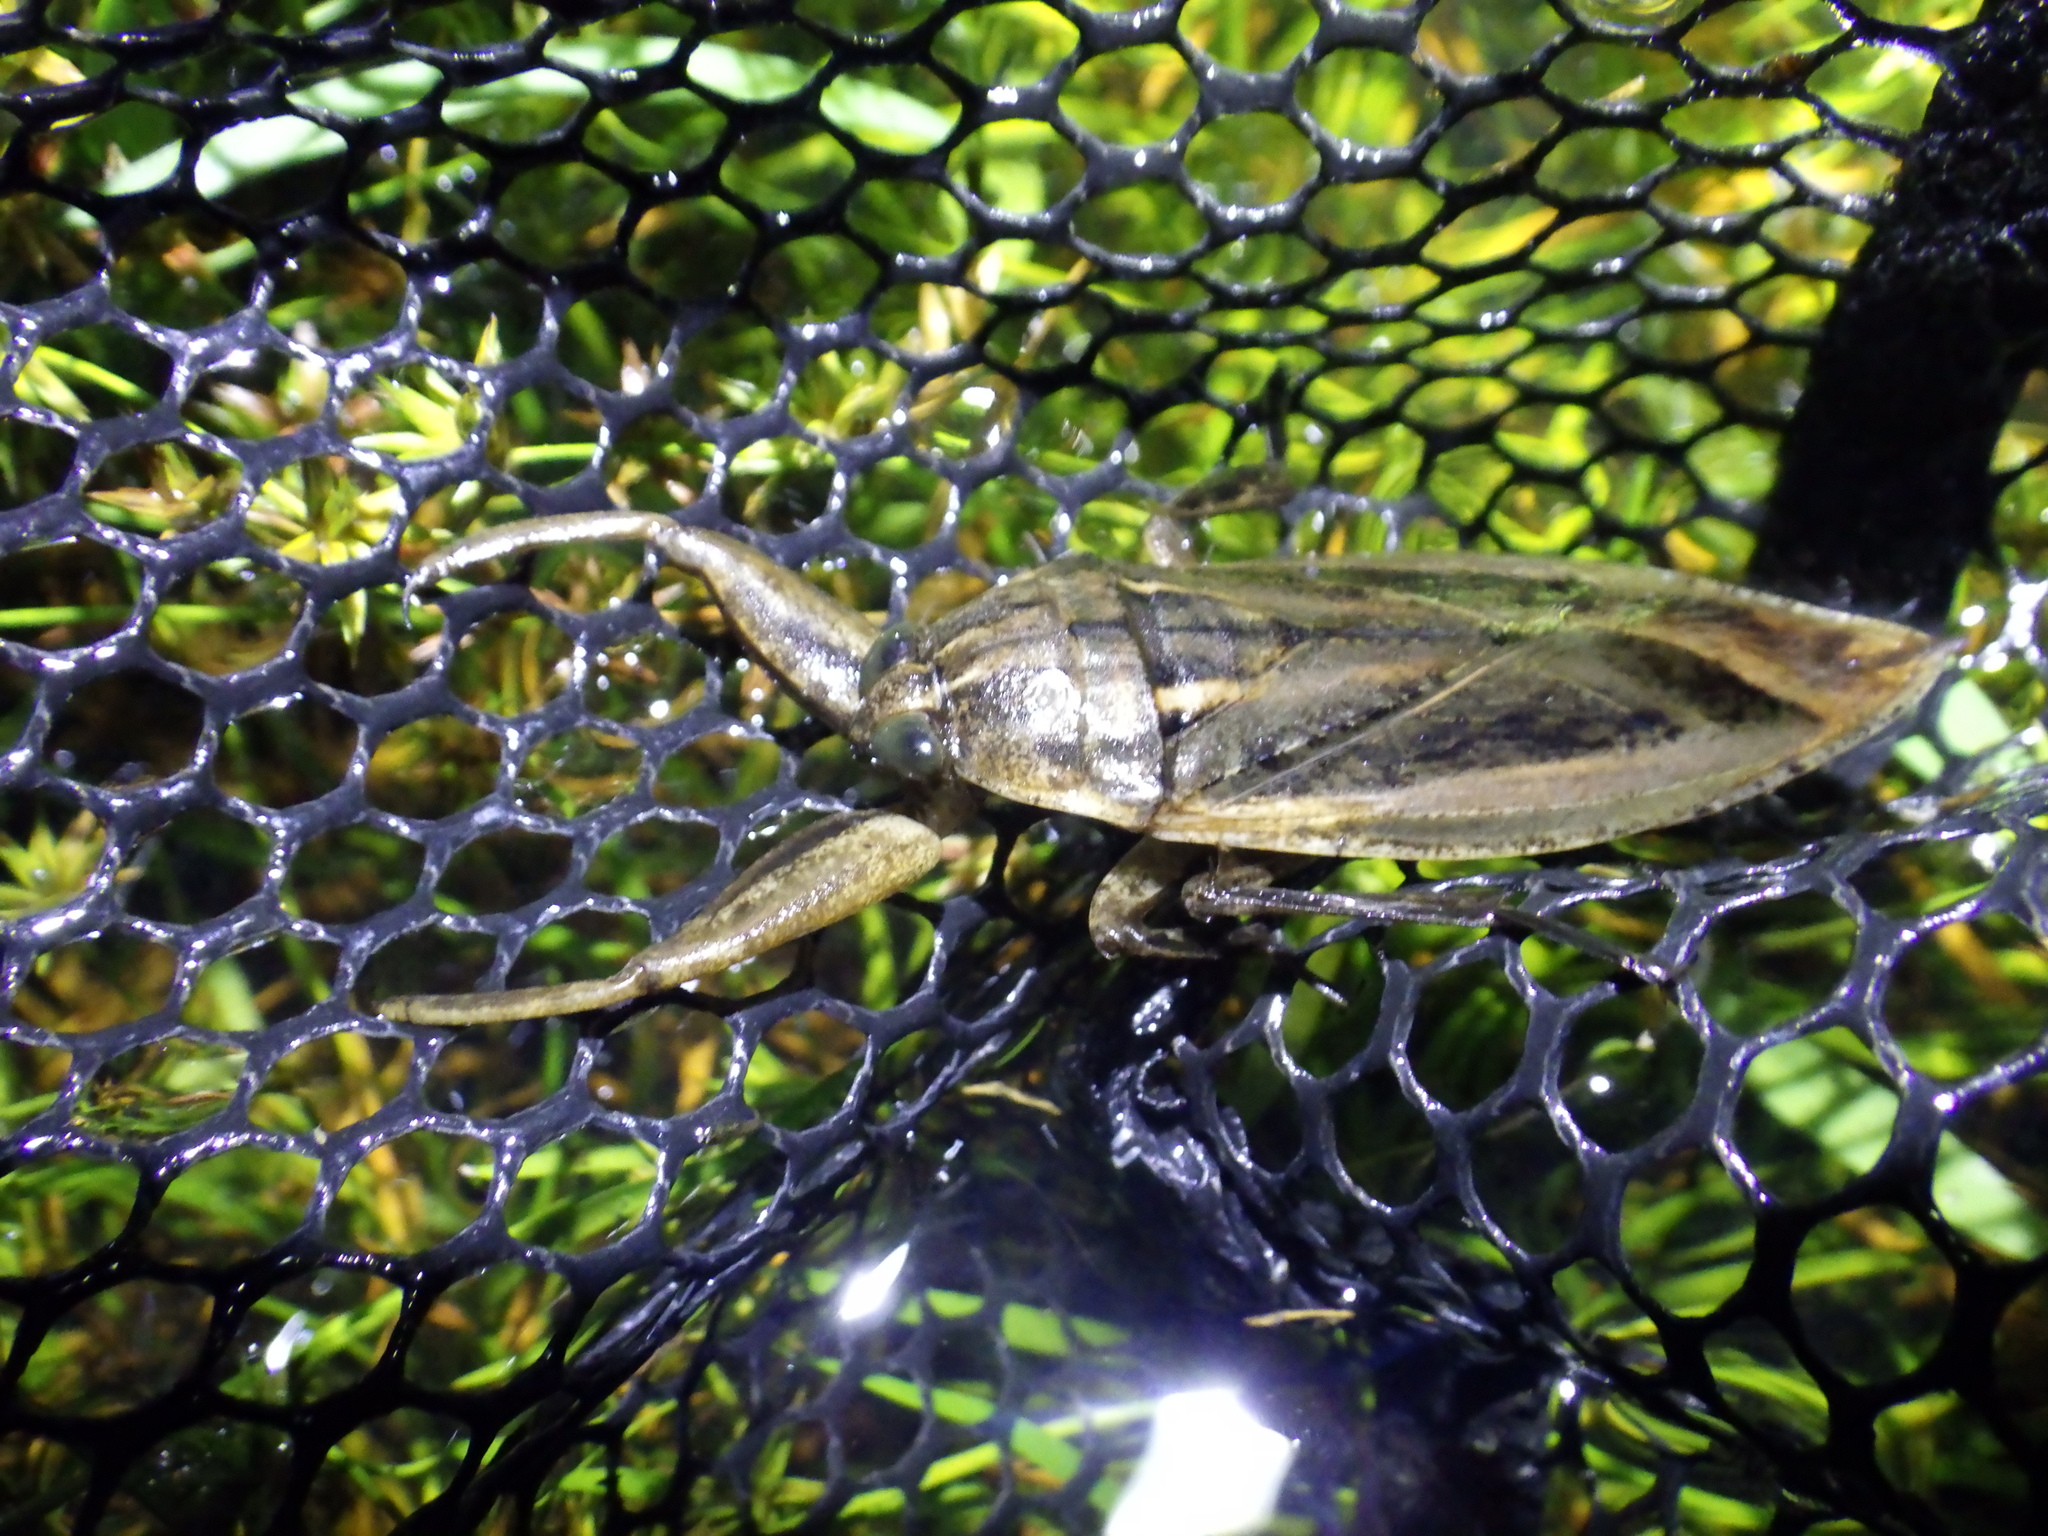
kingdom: Animalia
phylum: Arthropoda
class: Insecta
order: Hemiptera
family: Belostomatidae
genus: Lethocerus
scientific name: Lethocerus uhleri
